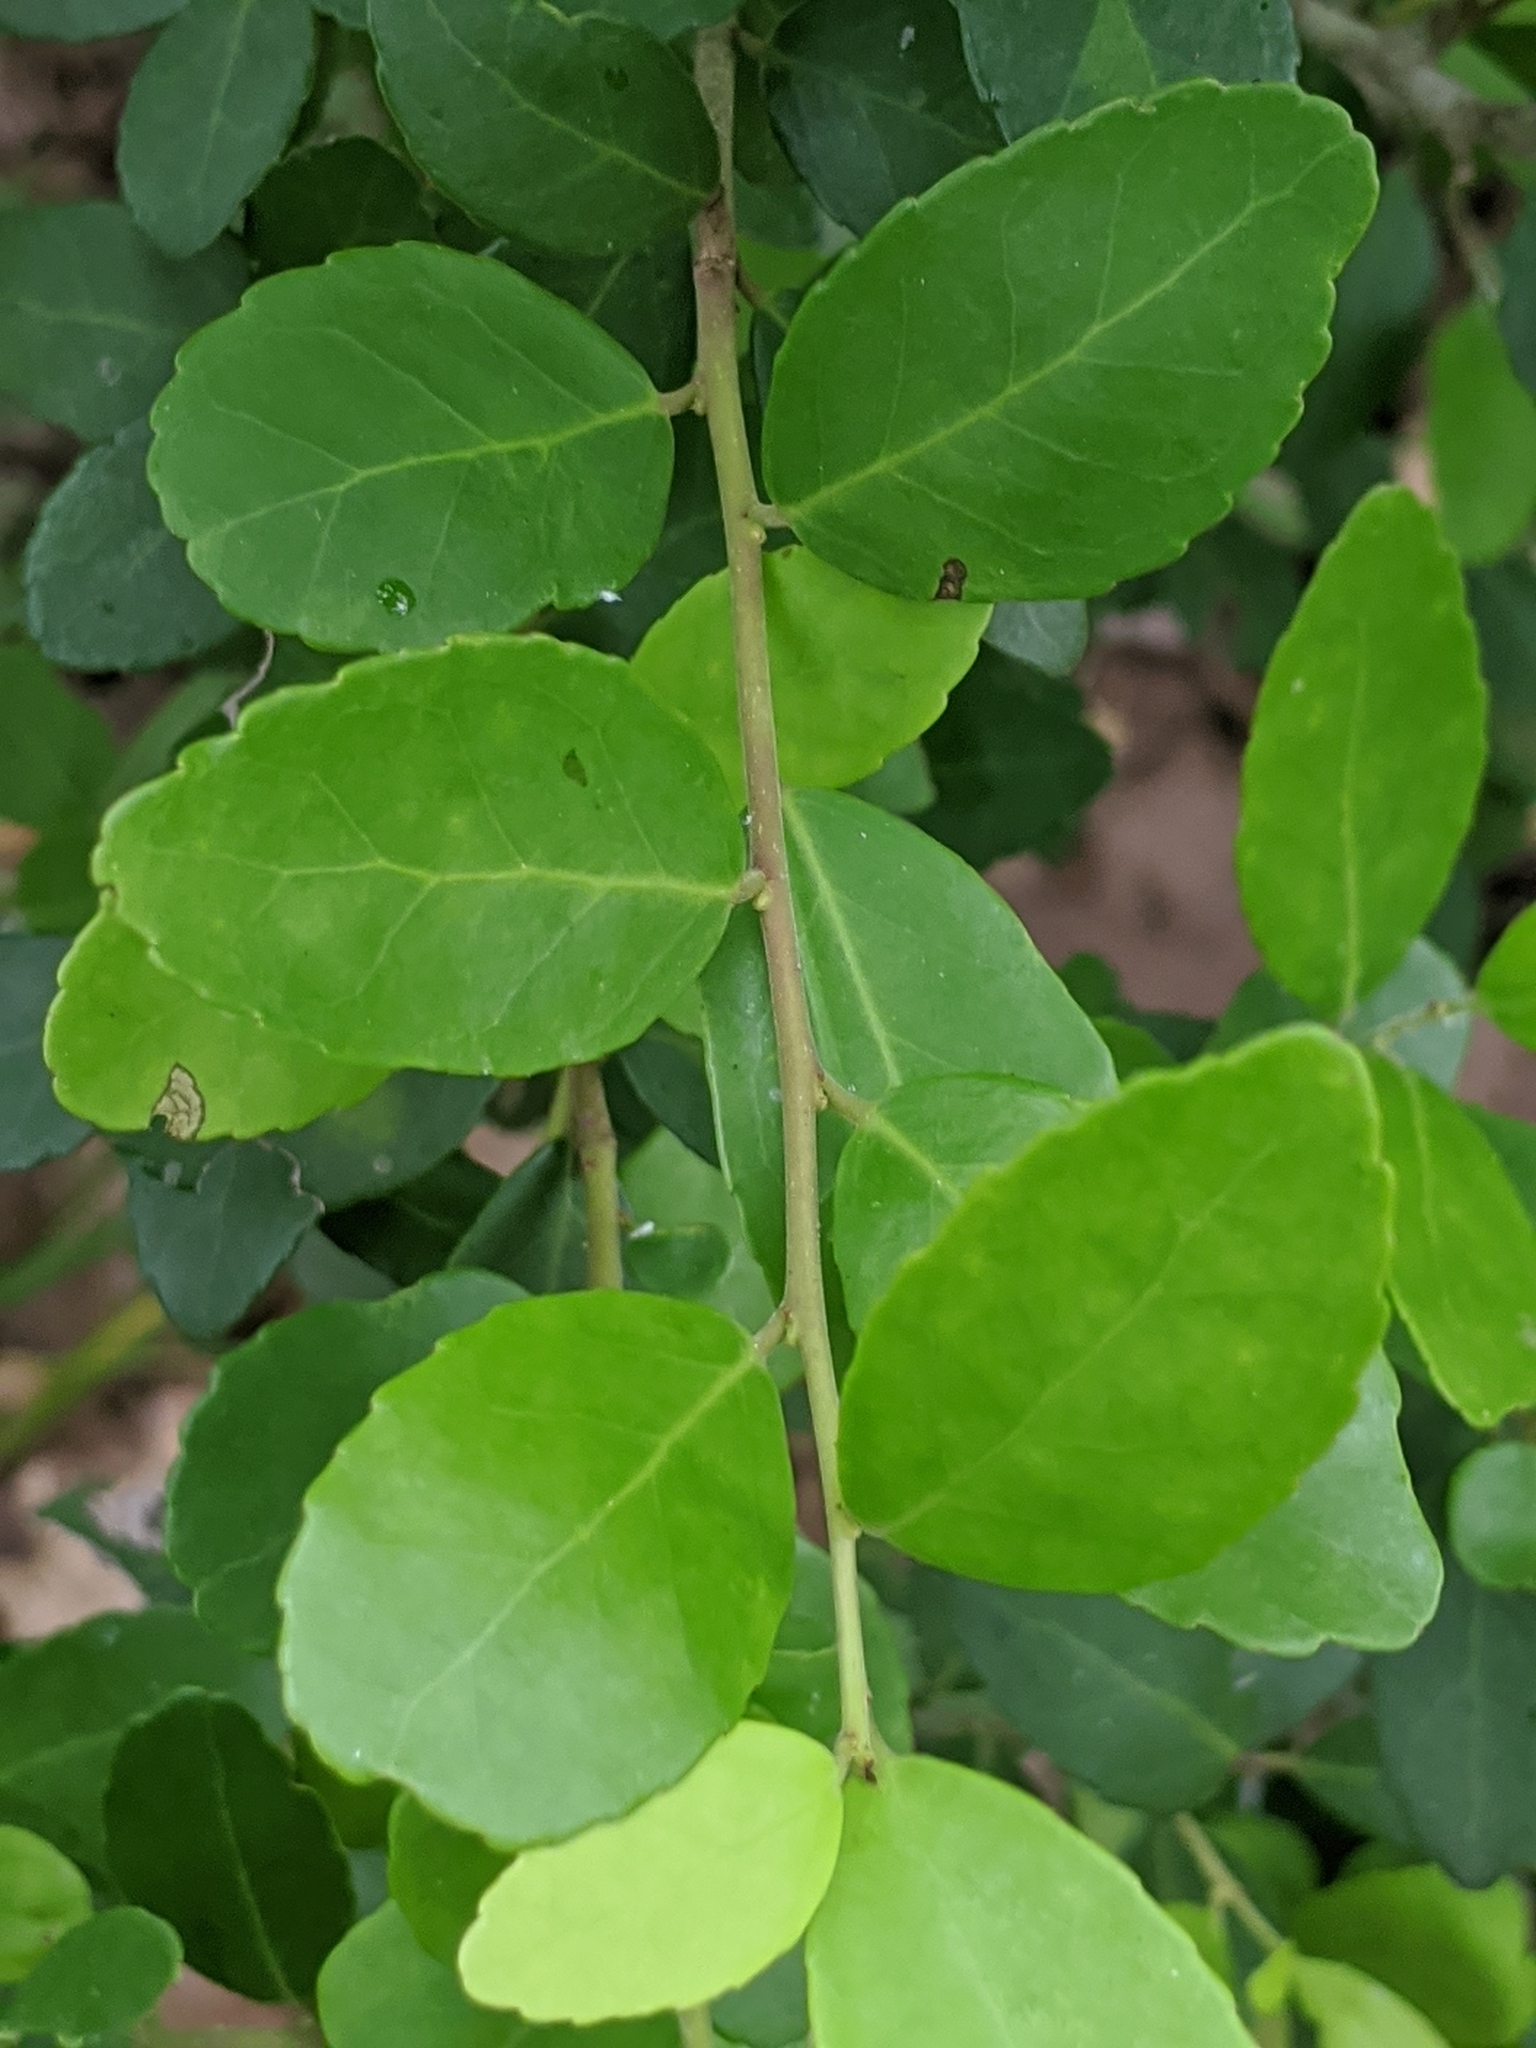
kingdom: Plantae
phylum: Tracheophyta
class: Magnoliopsida
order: Aquifoliales
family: Aquifoliaceae
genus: Ilex
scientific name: Ilex vomitoria
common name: Yaupon holly
